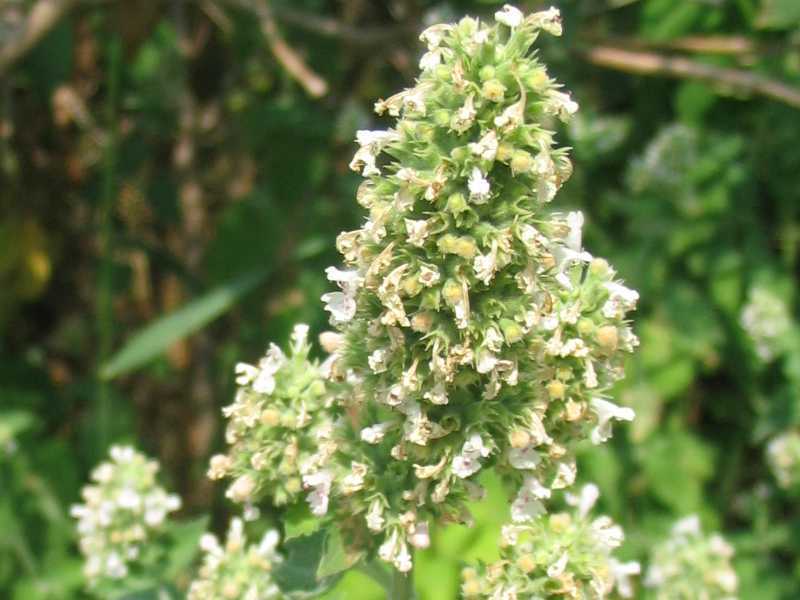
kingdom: Plantae
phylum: Tracheophyta
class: Magnoliopsida
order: Lamiales
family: Lamiaceae
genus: Nepeta
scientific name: Nepeta cataria
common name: Catnip
